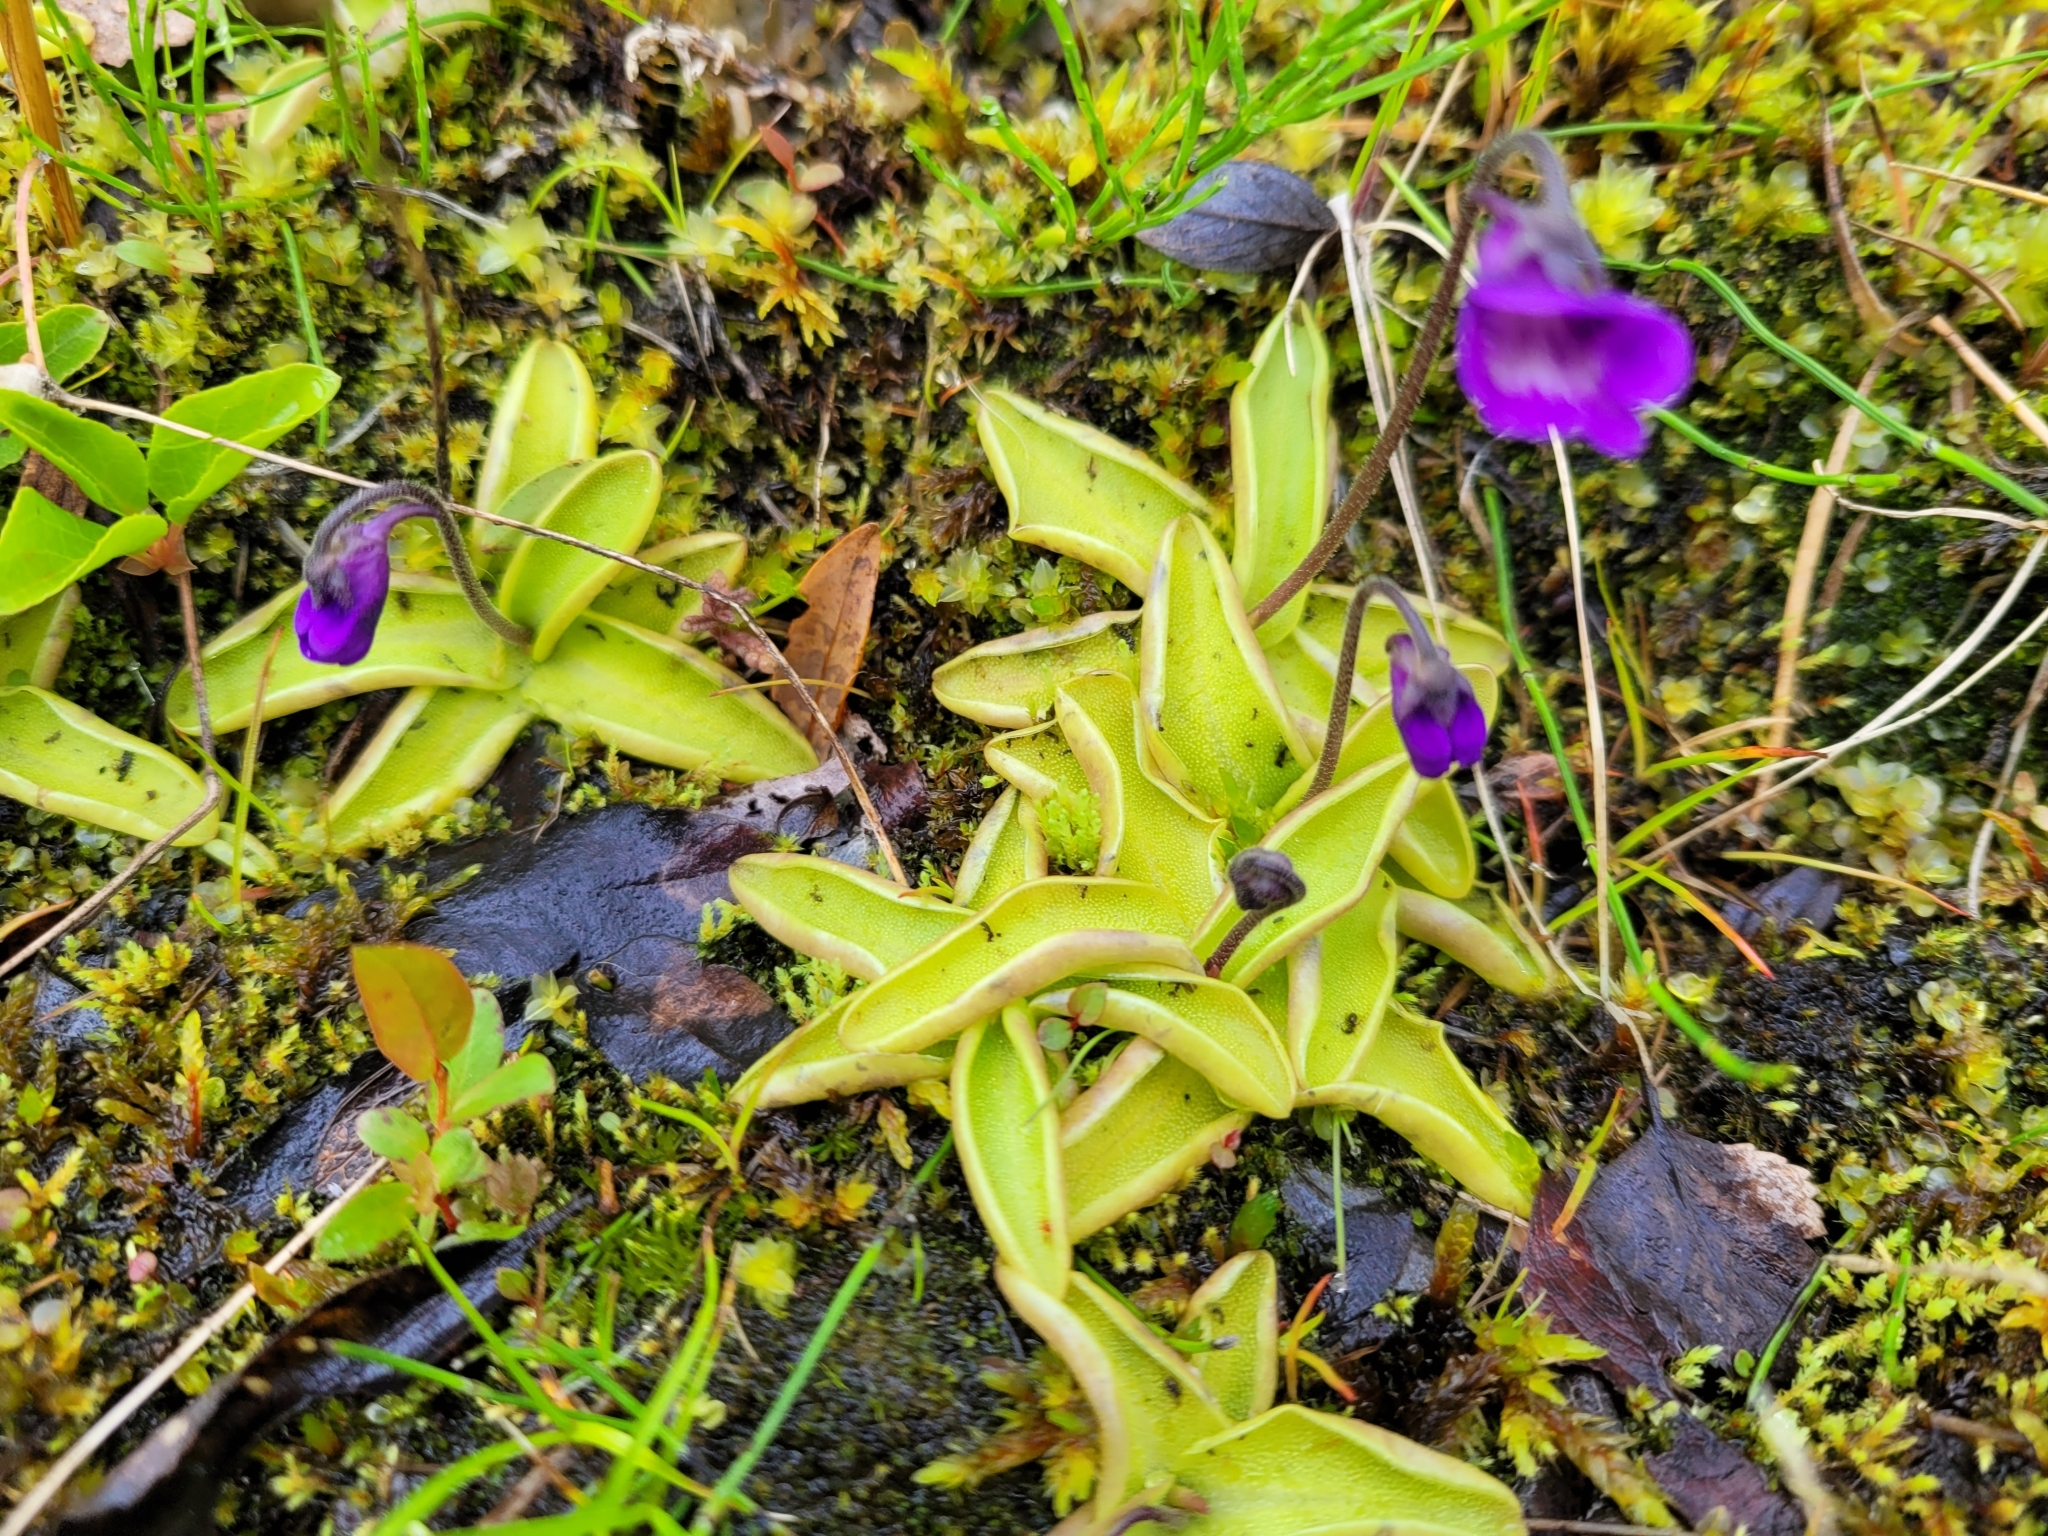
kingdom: Plantae
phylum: Tracheophyta
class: Magnoliopsida
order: Lamiales
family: Lentibulariaceae
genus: Pinguicula
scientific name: Pinguicula vulgaris
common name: Common butterwort
